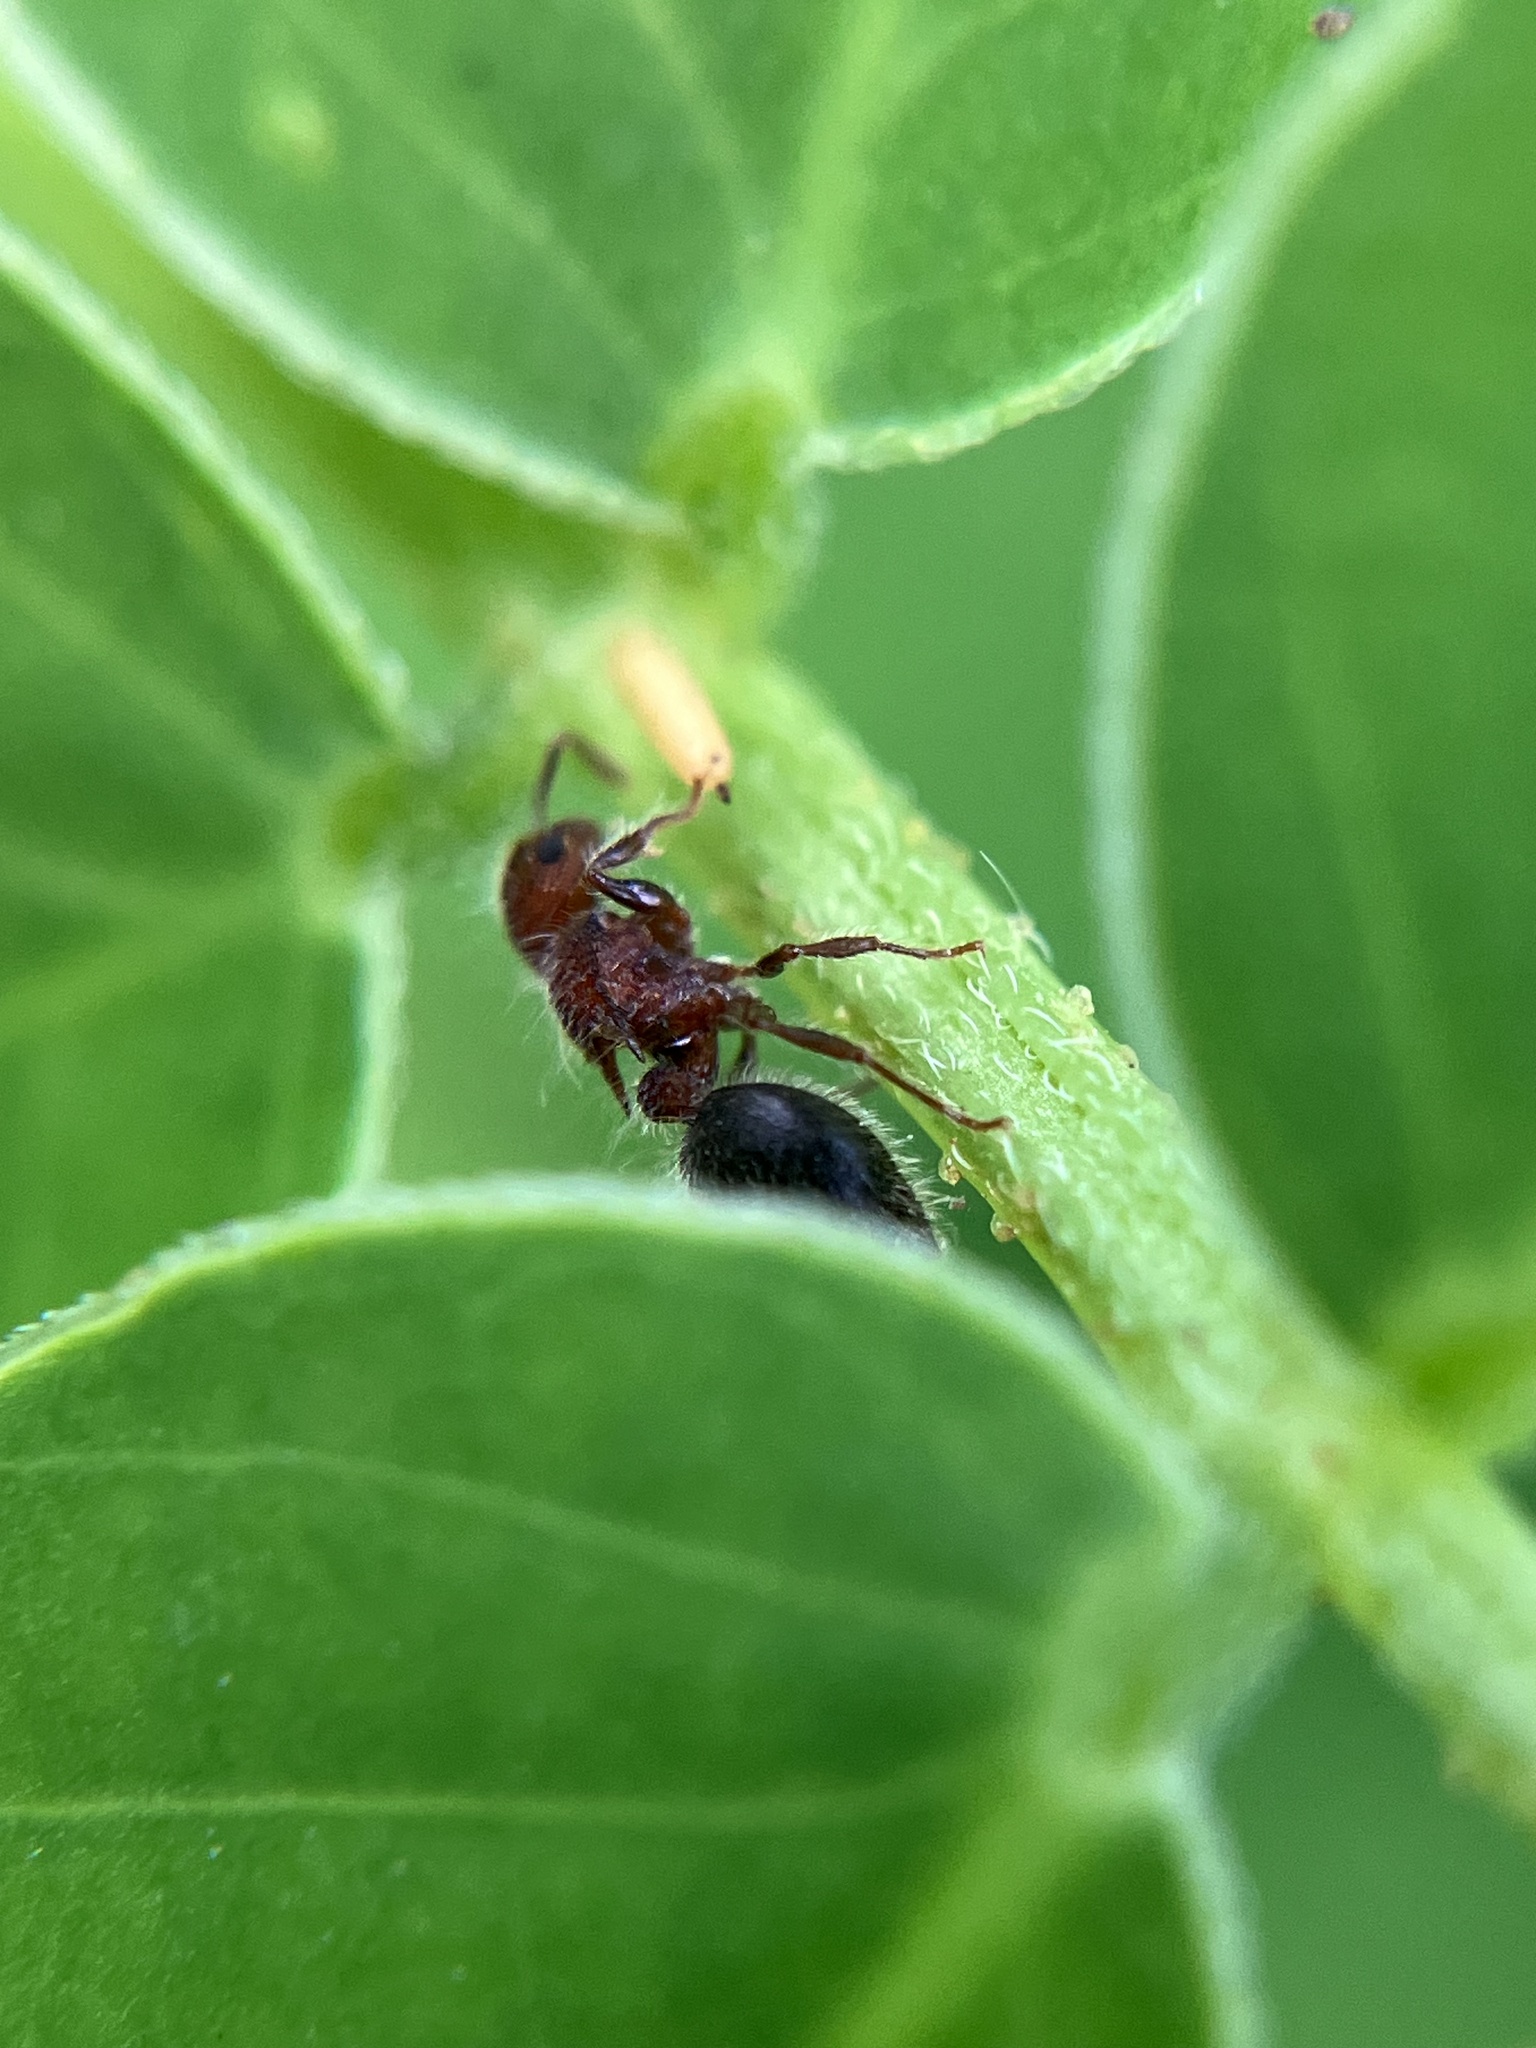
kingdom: Animalia
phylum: Arthropoda
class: Insecta
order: Hymenoptera
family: Formicidae
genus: Meranoplus
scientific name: Meranoplus bicolor
